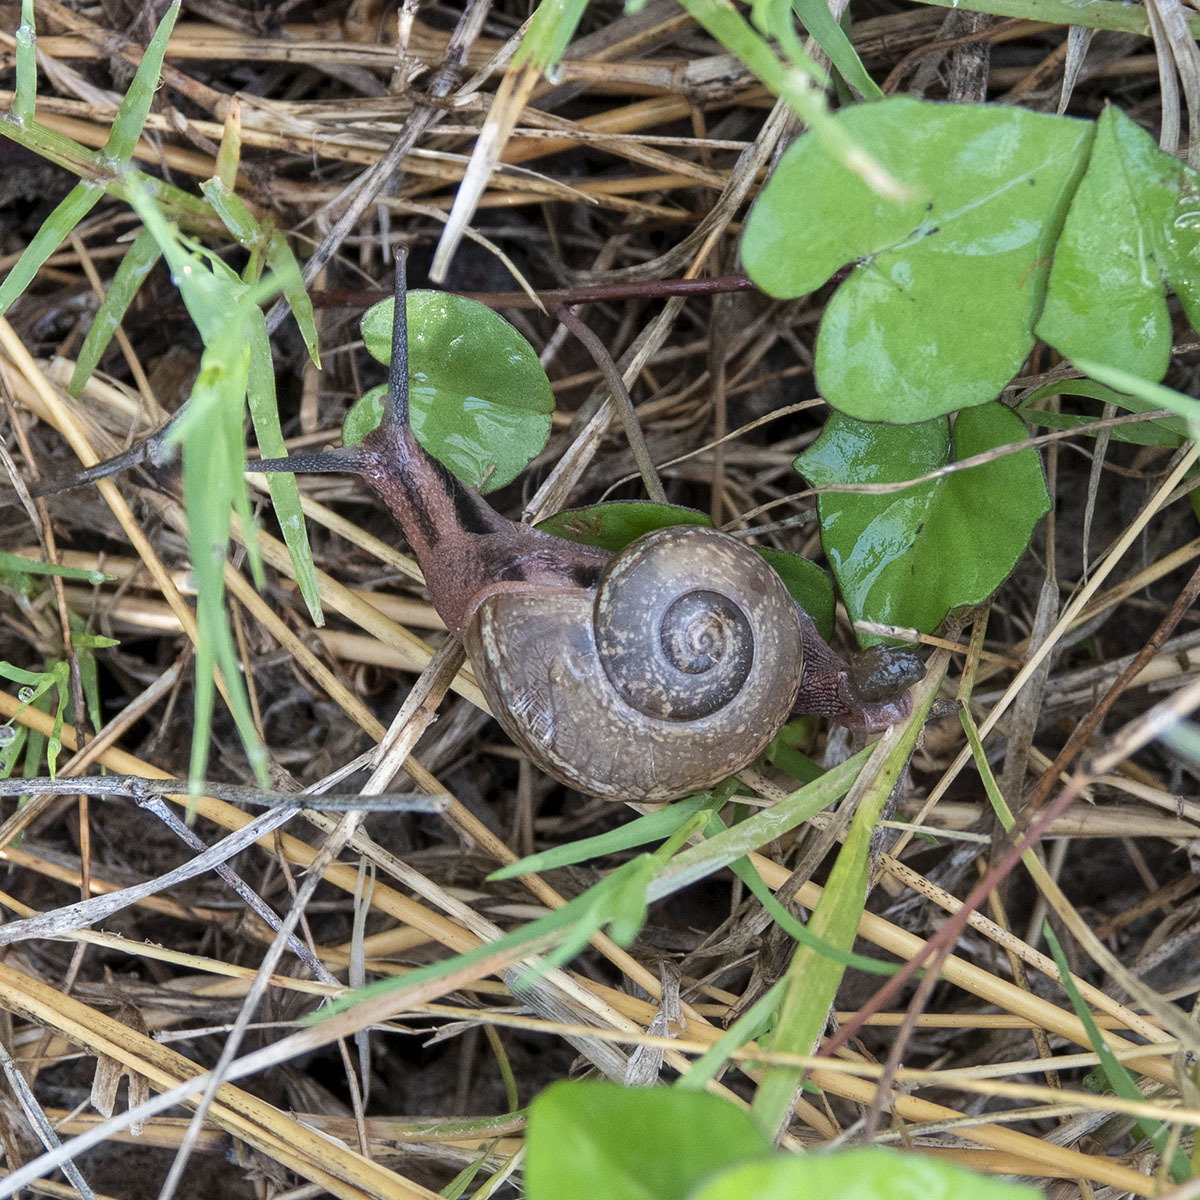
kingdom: Animalia
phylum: Mollusca
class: Gastropoda
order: Stylommatophora
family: Ariophantidae
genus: Ariophanta
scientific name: Ariophanta exilis
